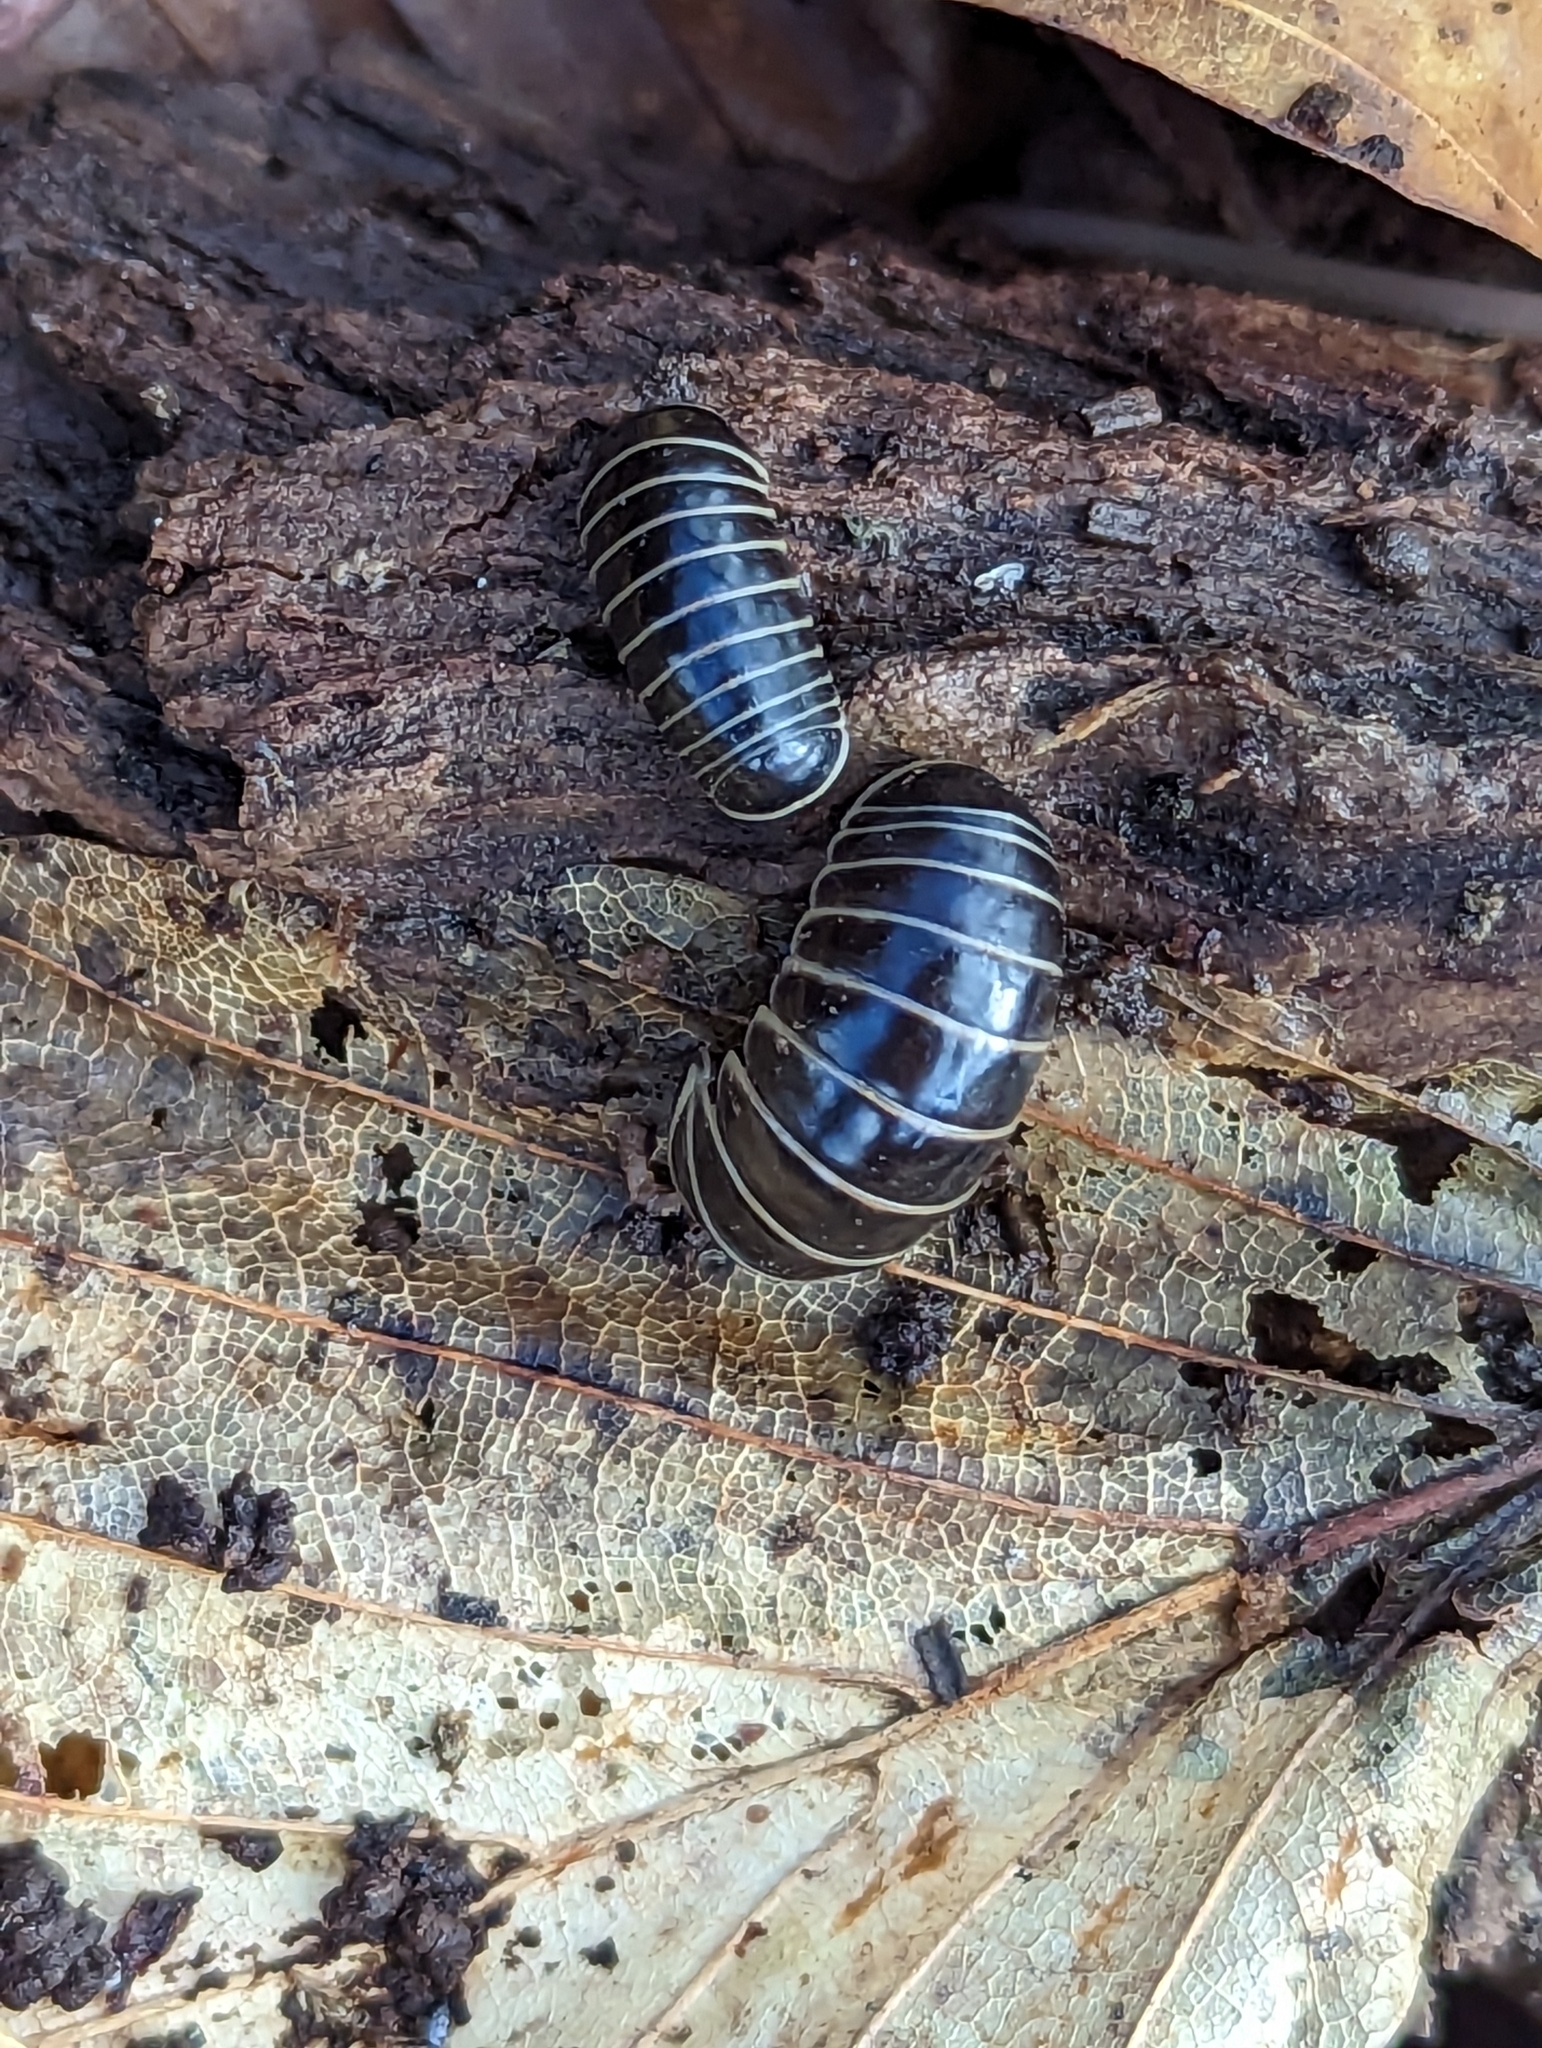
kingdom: Animalia
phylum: Arthropoda
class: Diplopoda
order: Glomerida
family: Glomeridae
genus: Glomeris
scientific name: Glomeris marginata
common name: Bordered pill millipede
